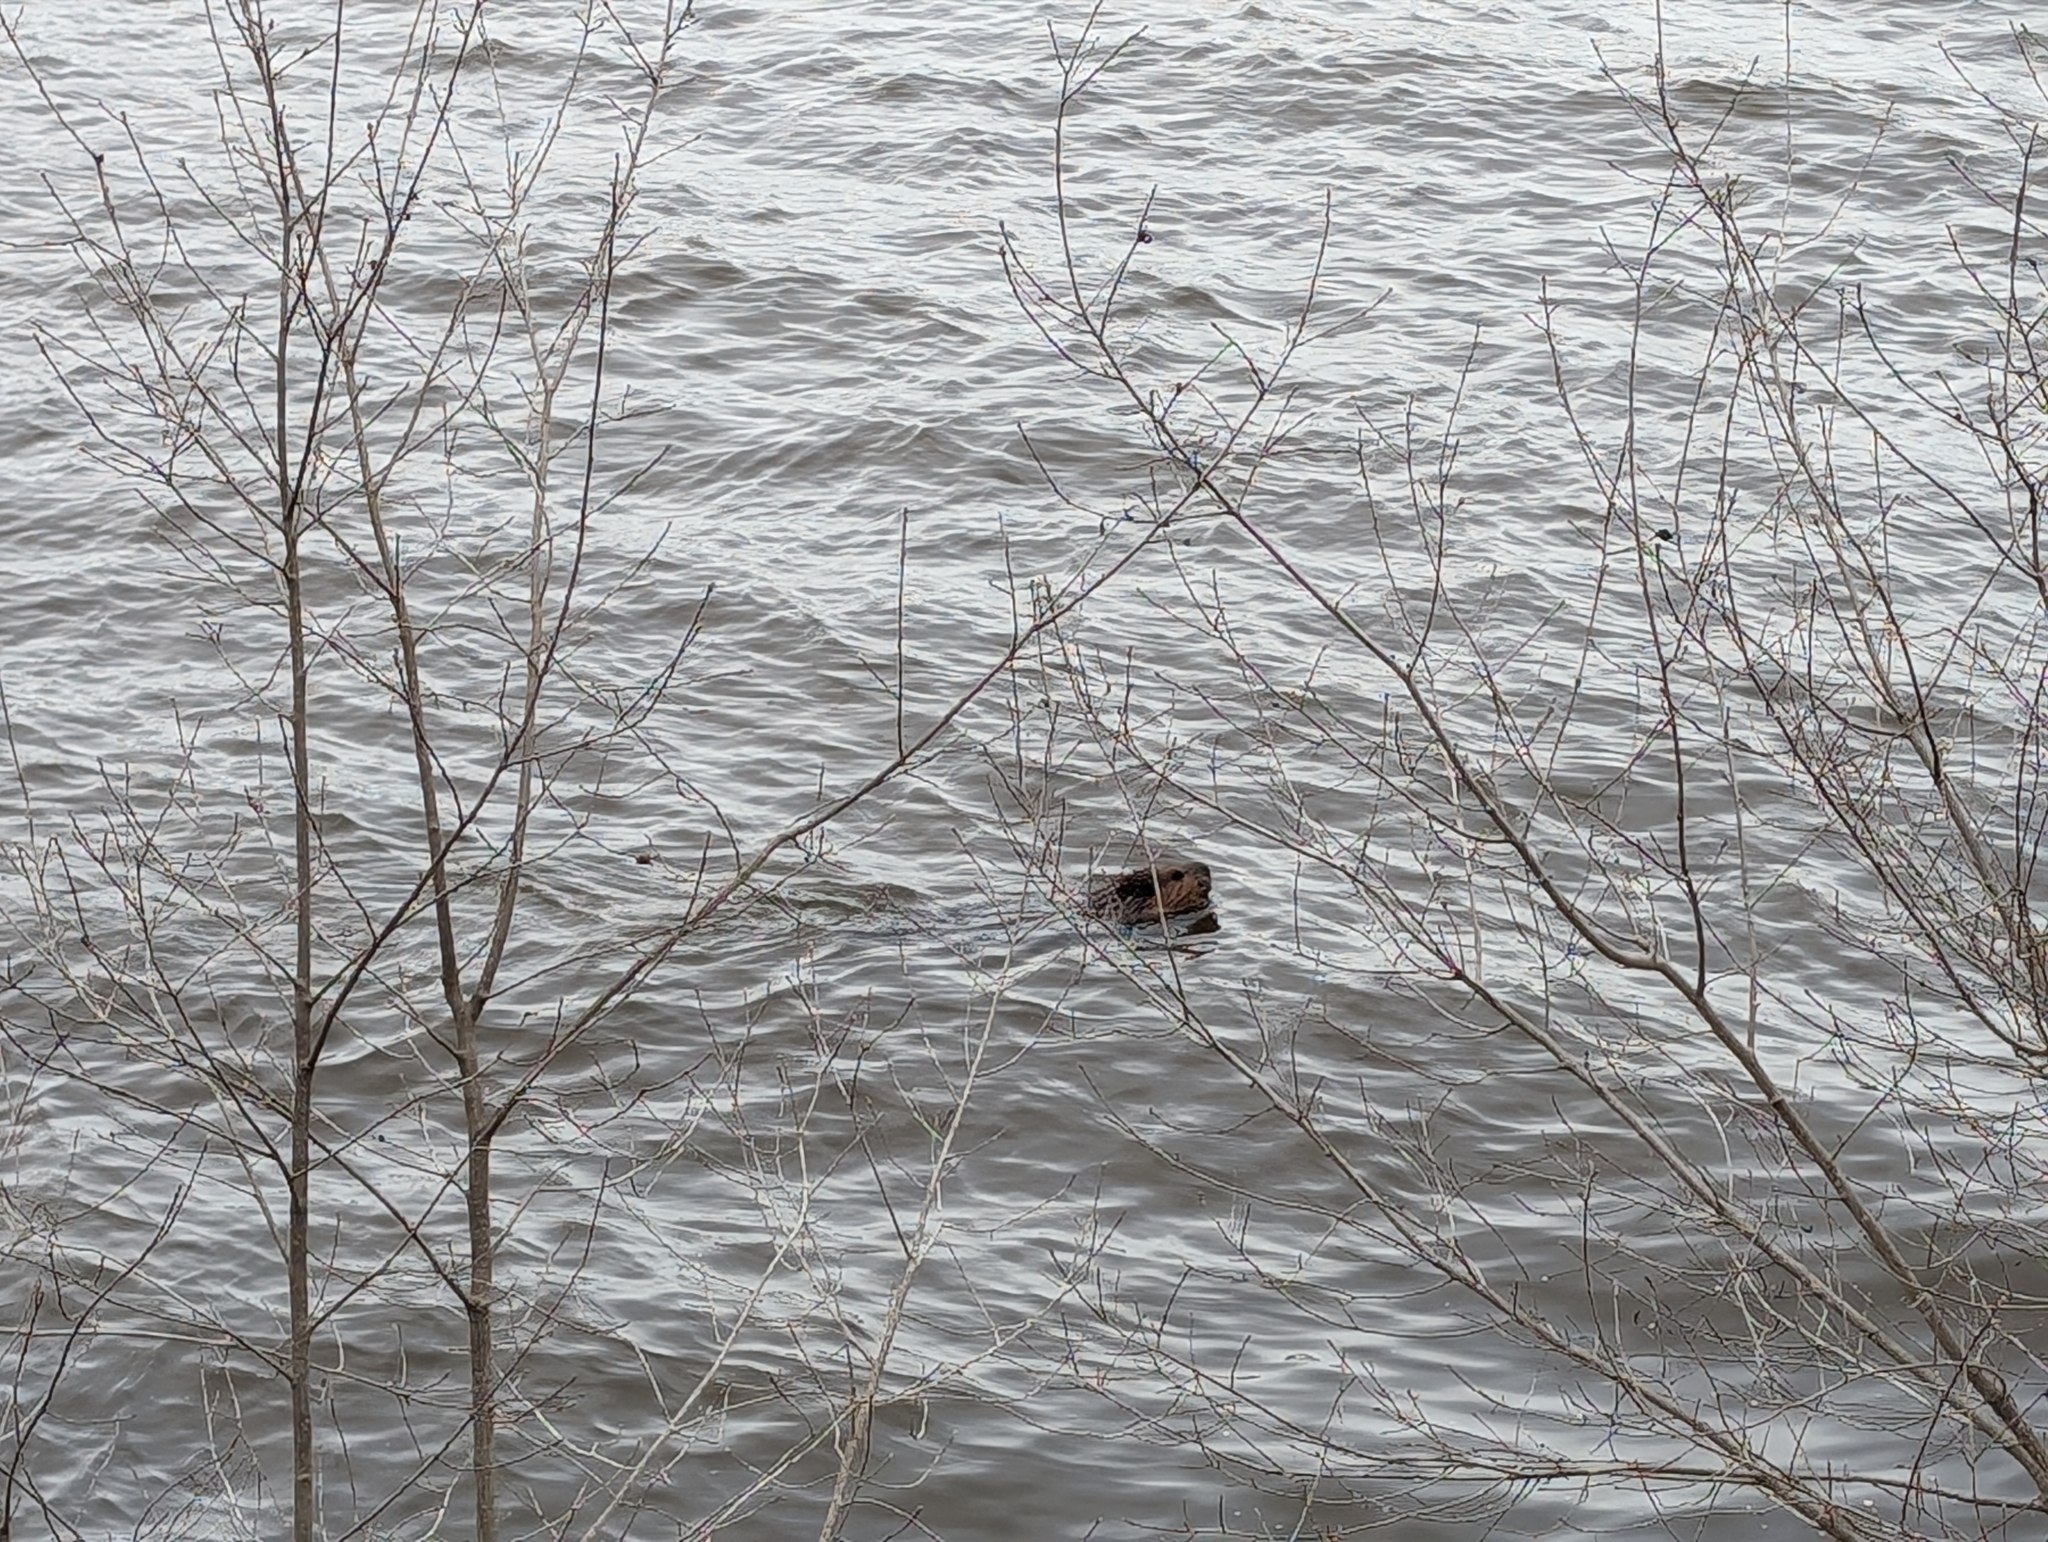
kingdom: Animalia
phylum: Chordata
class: Mammalia
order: Rodentia
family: Castoridae
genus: Castor
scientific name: Castor canadensis
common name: American beaver
